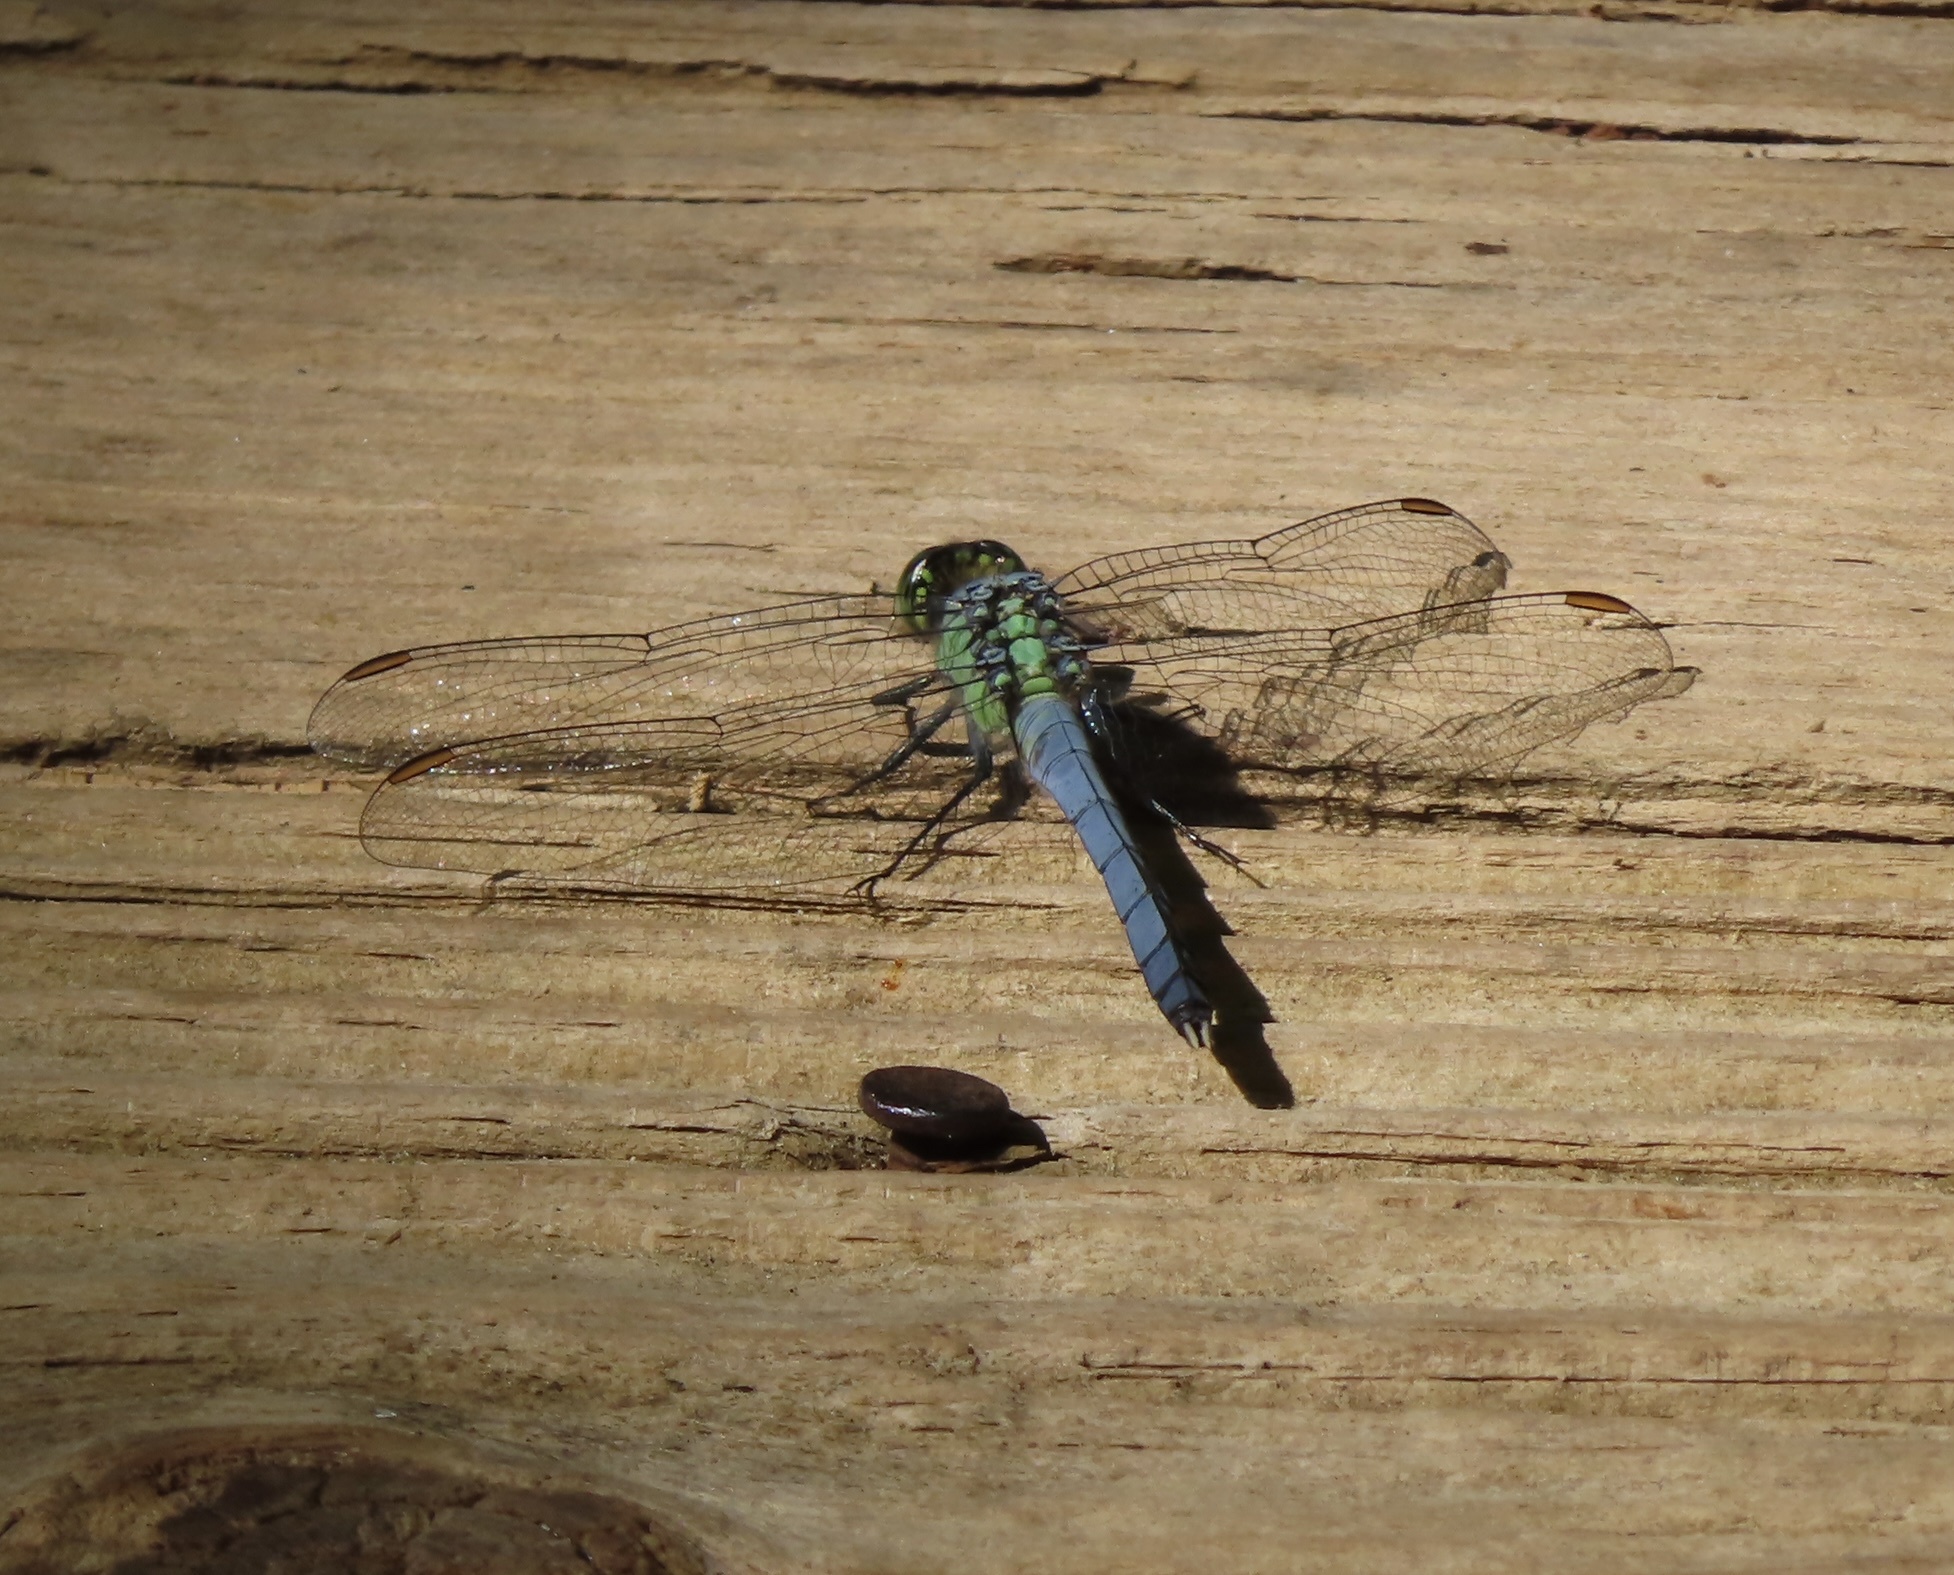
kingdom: Animalia
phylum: Arthropoda
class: Insecta
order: Odonata
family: Libellulidae
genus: Erythemis
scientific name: Erythemis simplicicollis
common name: Eastern pondhawk
